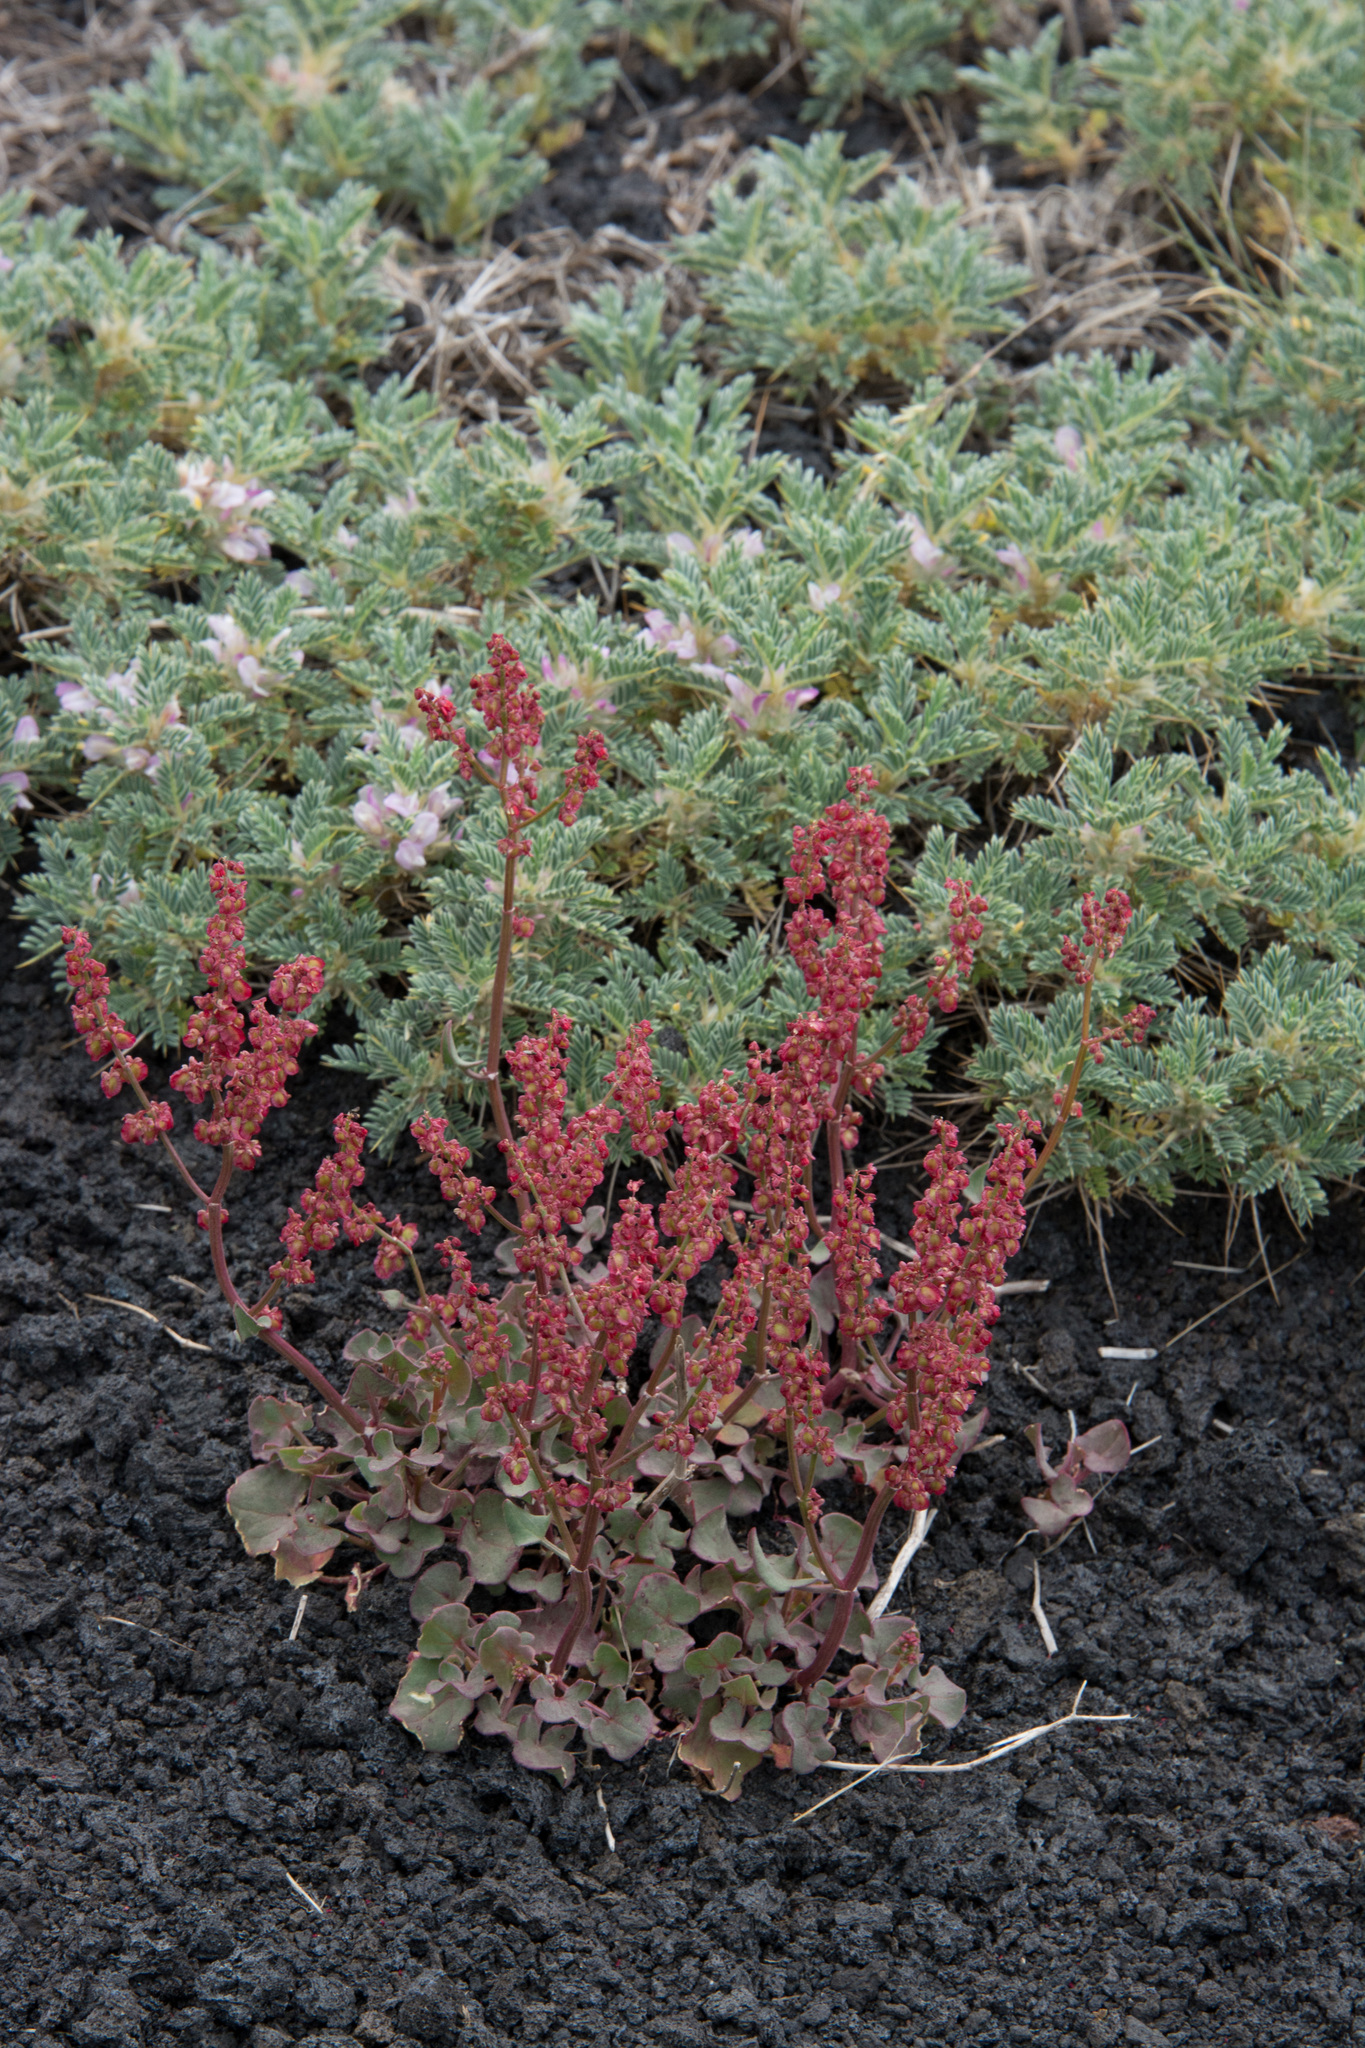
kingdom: Plantae
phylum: Tracheophyta
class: Magnoliopsida
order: Caryophyllales
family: Polygonaceae
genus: Rumex
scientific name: Rumex aetnensis
